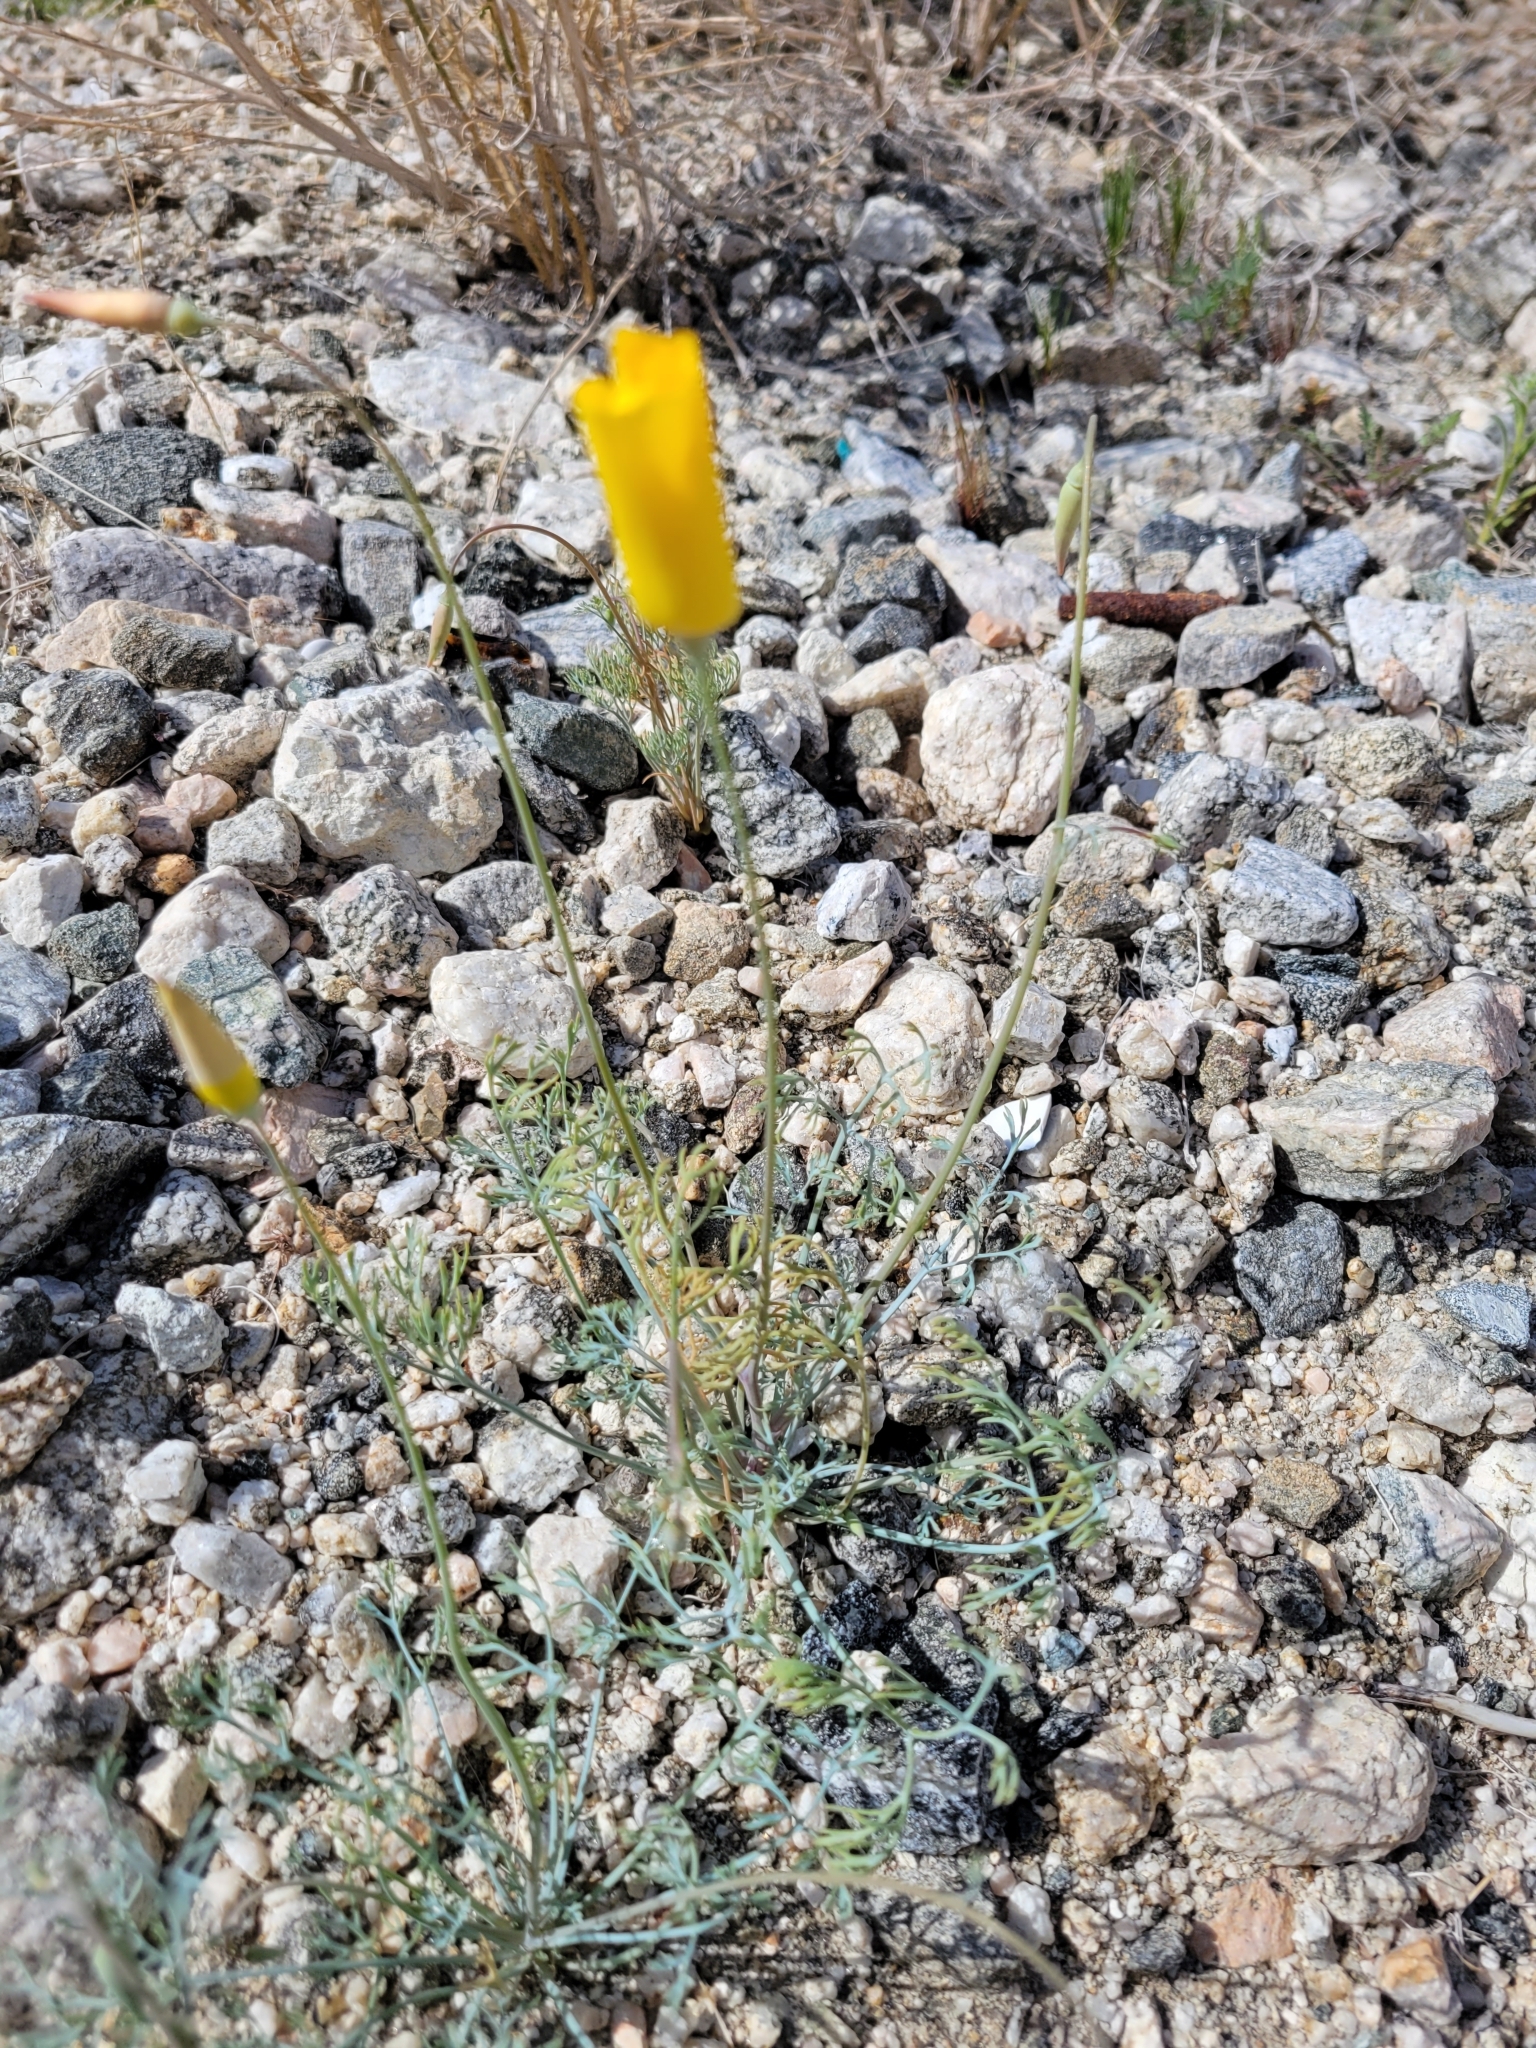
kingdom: Plantae
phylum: Tracheophyta
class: Magnoliopsida
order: Ranunculales
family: Papaveraceae
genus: Eschscholzia
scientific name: Eschscholzia papastillii
